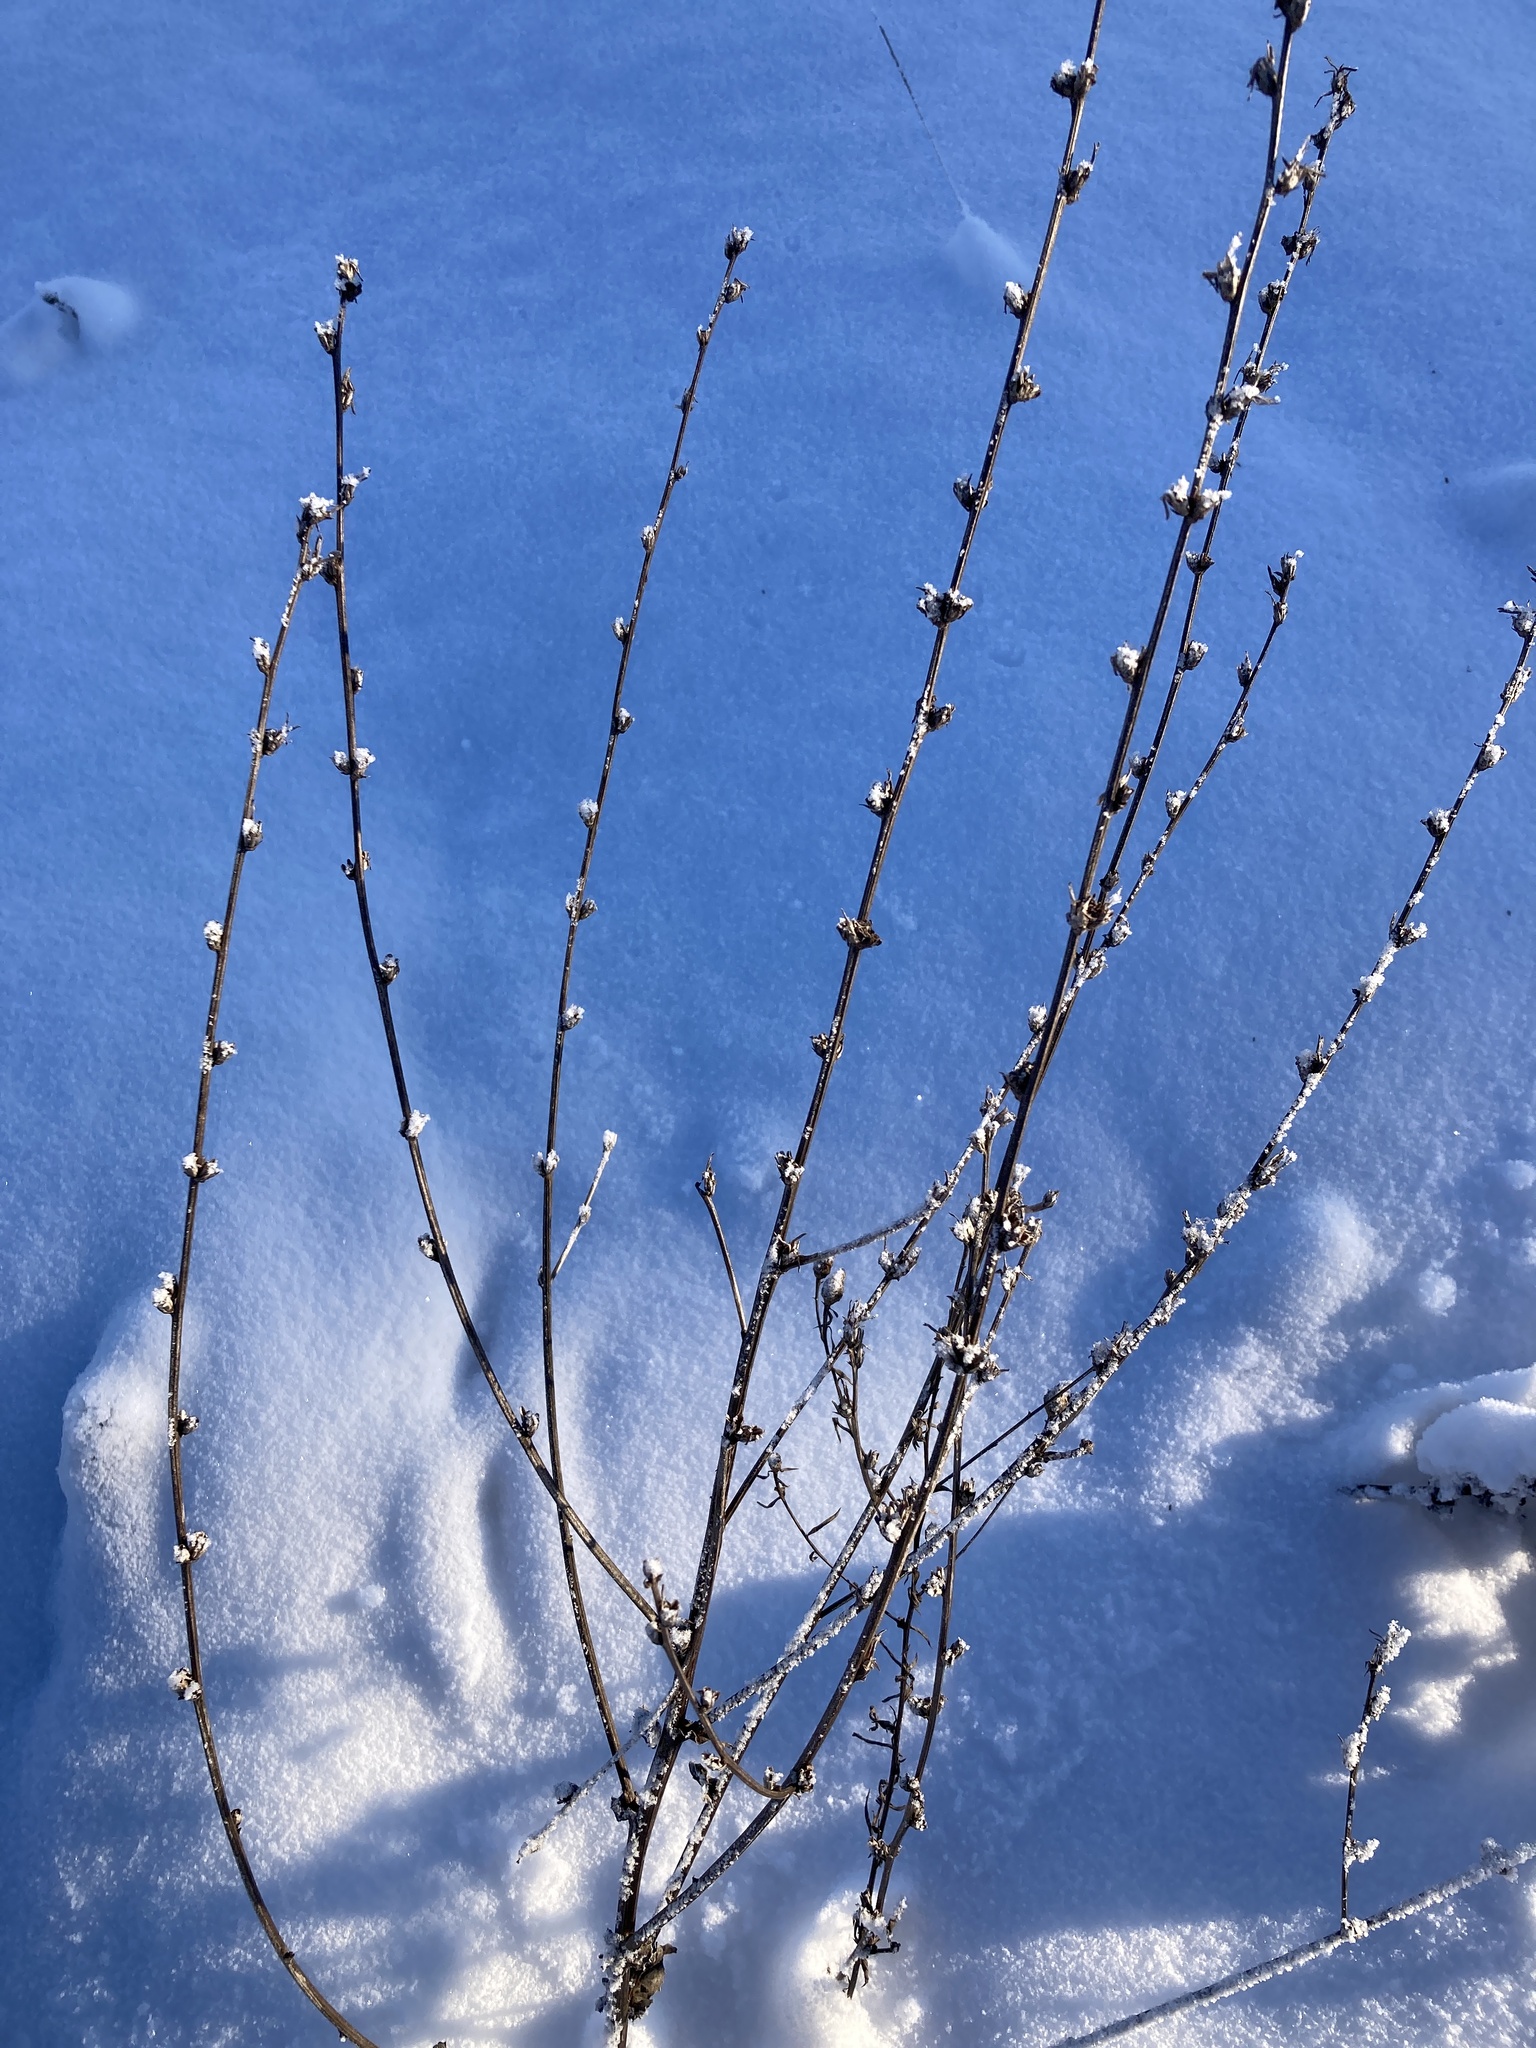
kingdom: Plantae
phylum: Tracheophyta
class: Magnoliopsida
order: Asterales
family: Asteraceae
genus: Cichorium
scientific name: Cichorium intybus
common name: Chicory
